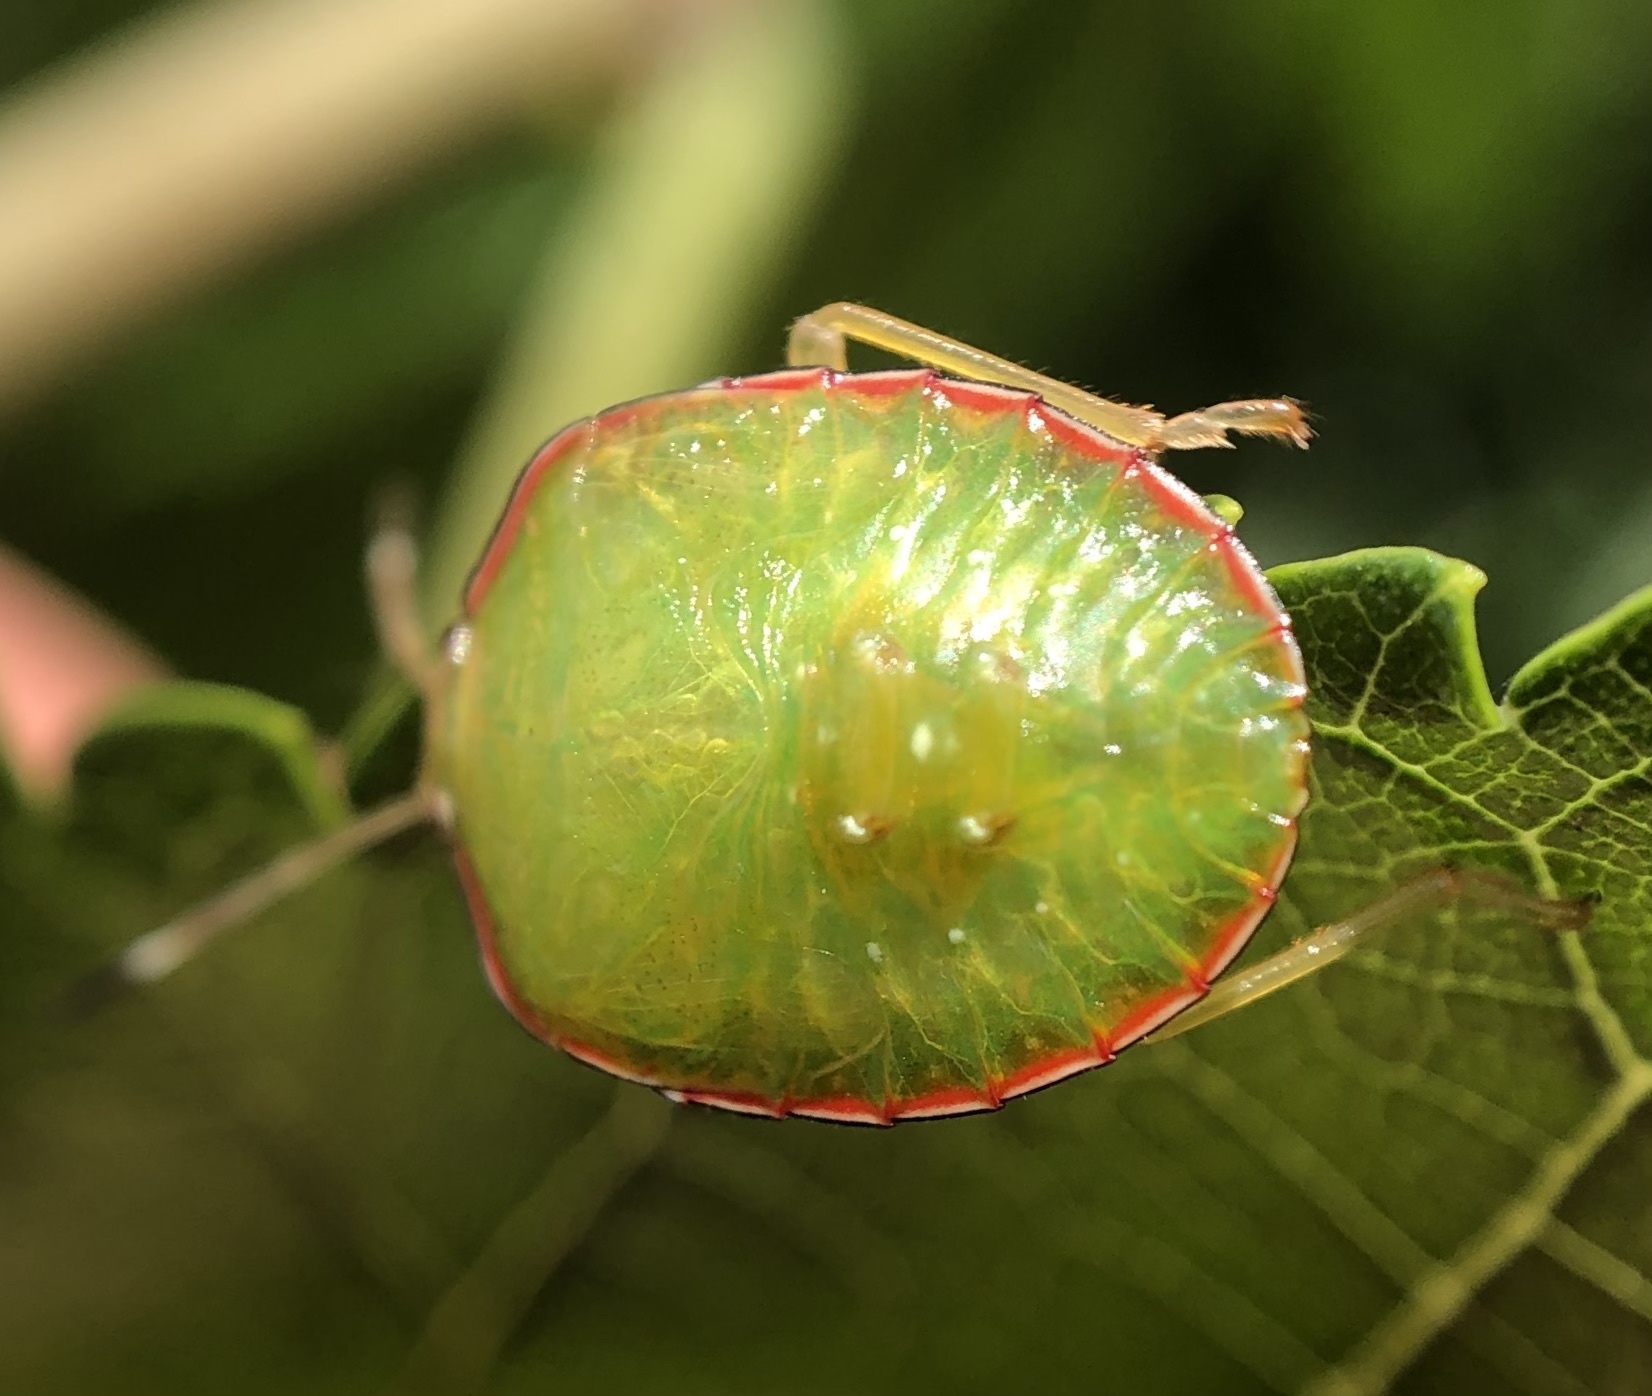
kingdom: Animalia
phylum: Arthropoda
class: Insecta
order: Hemiptera
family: Pentatomidae
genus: Edessa
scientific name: Edessa bifida
